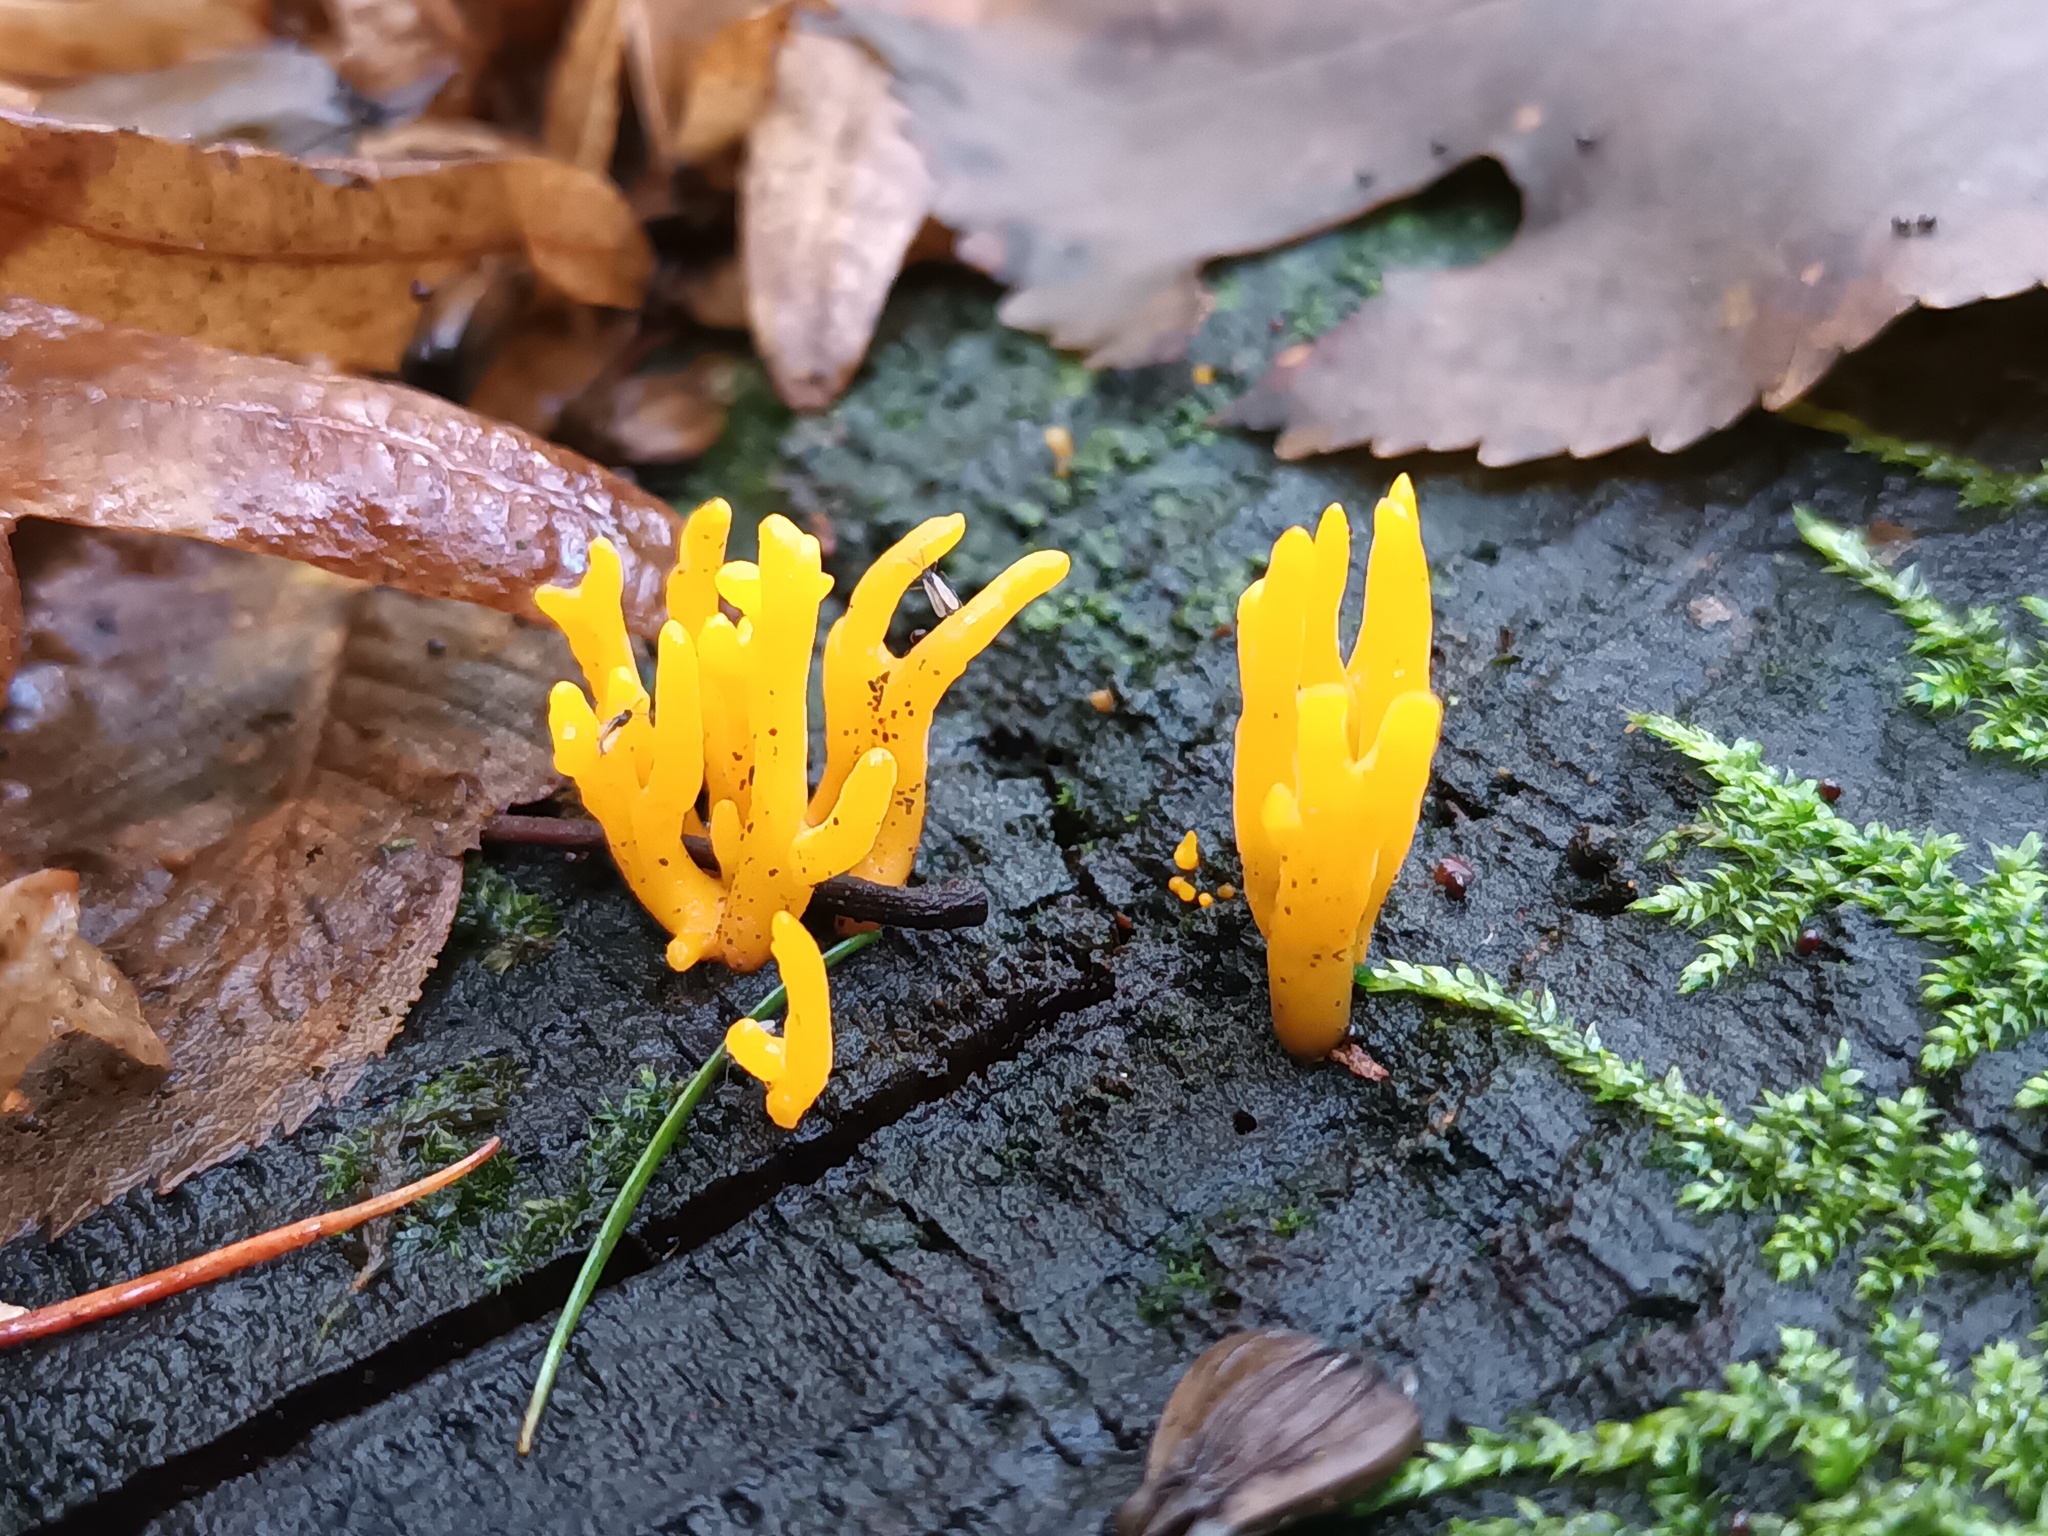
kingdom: Fungi
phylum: Basidiomycota
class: Dacrymycetes
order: Dacrymycetales
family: Dacrymycetaceae
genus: Calocera
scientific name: Calocera viscosa
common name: Yellow stagshorn
